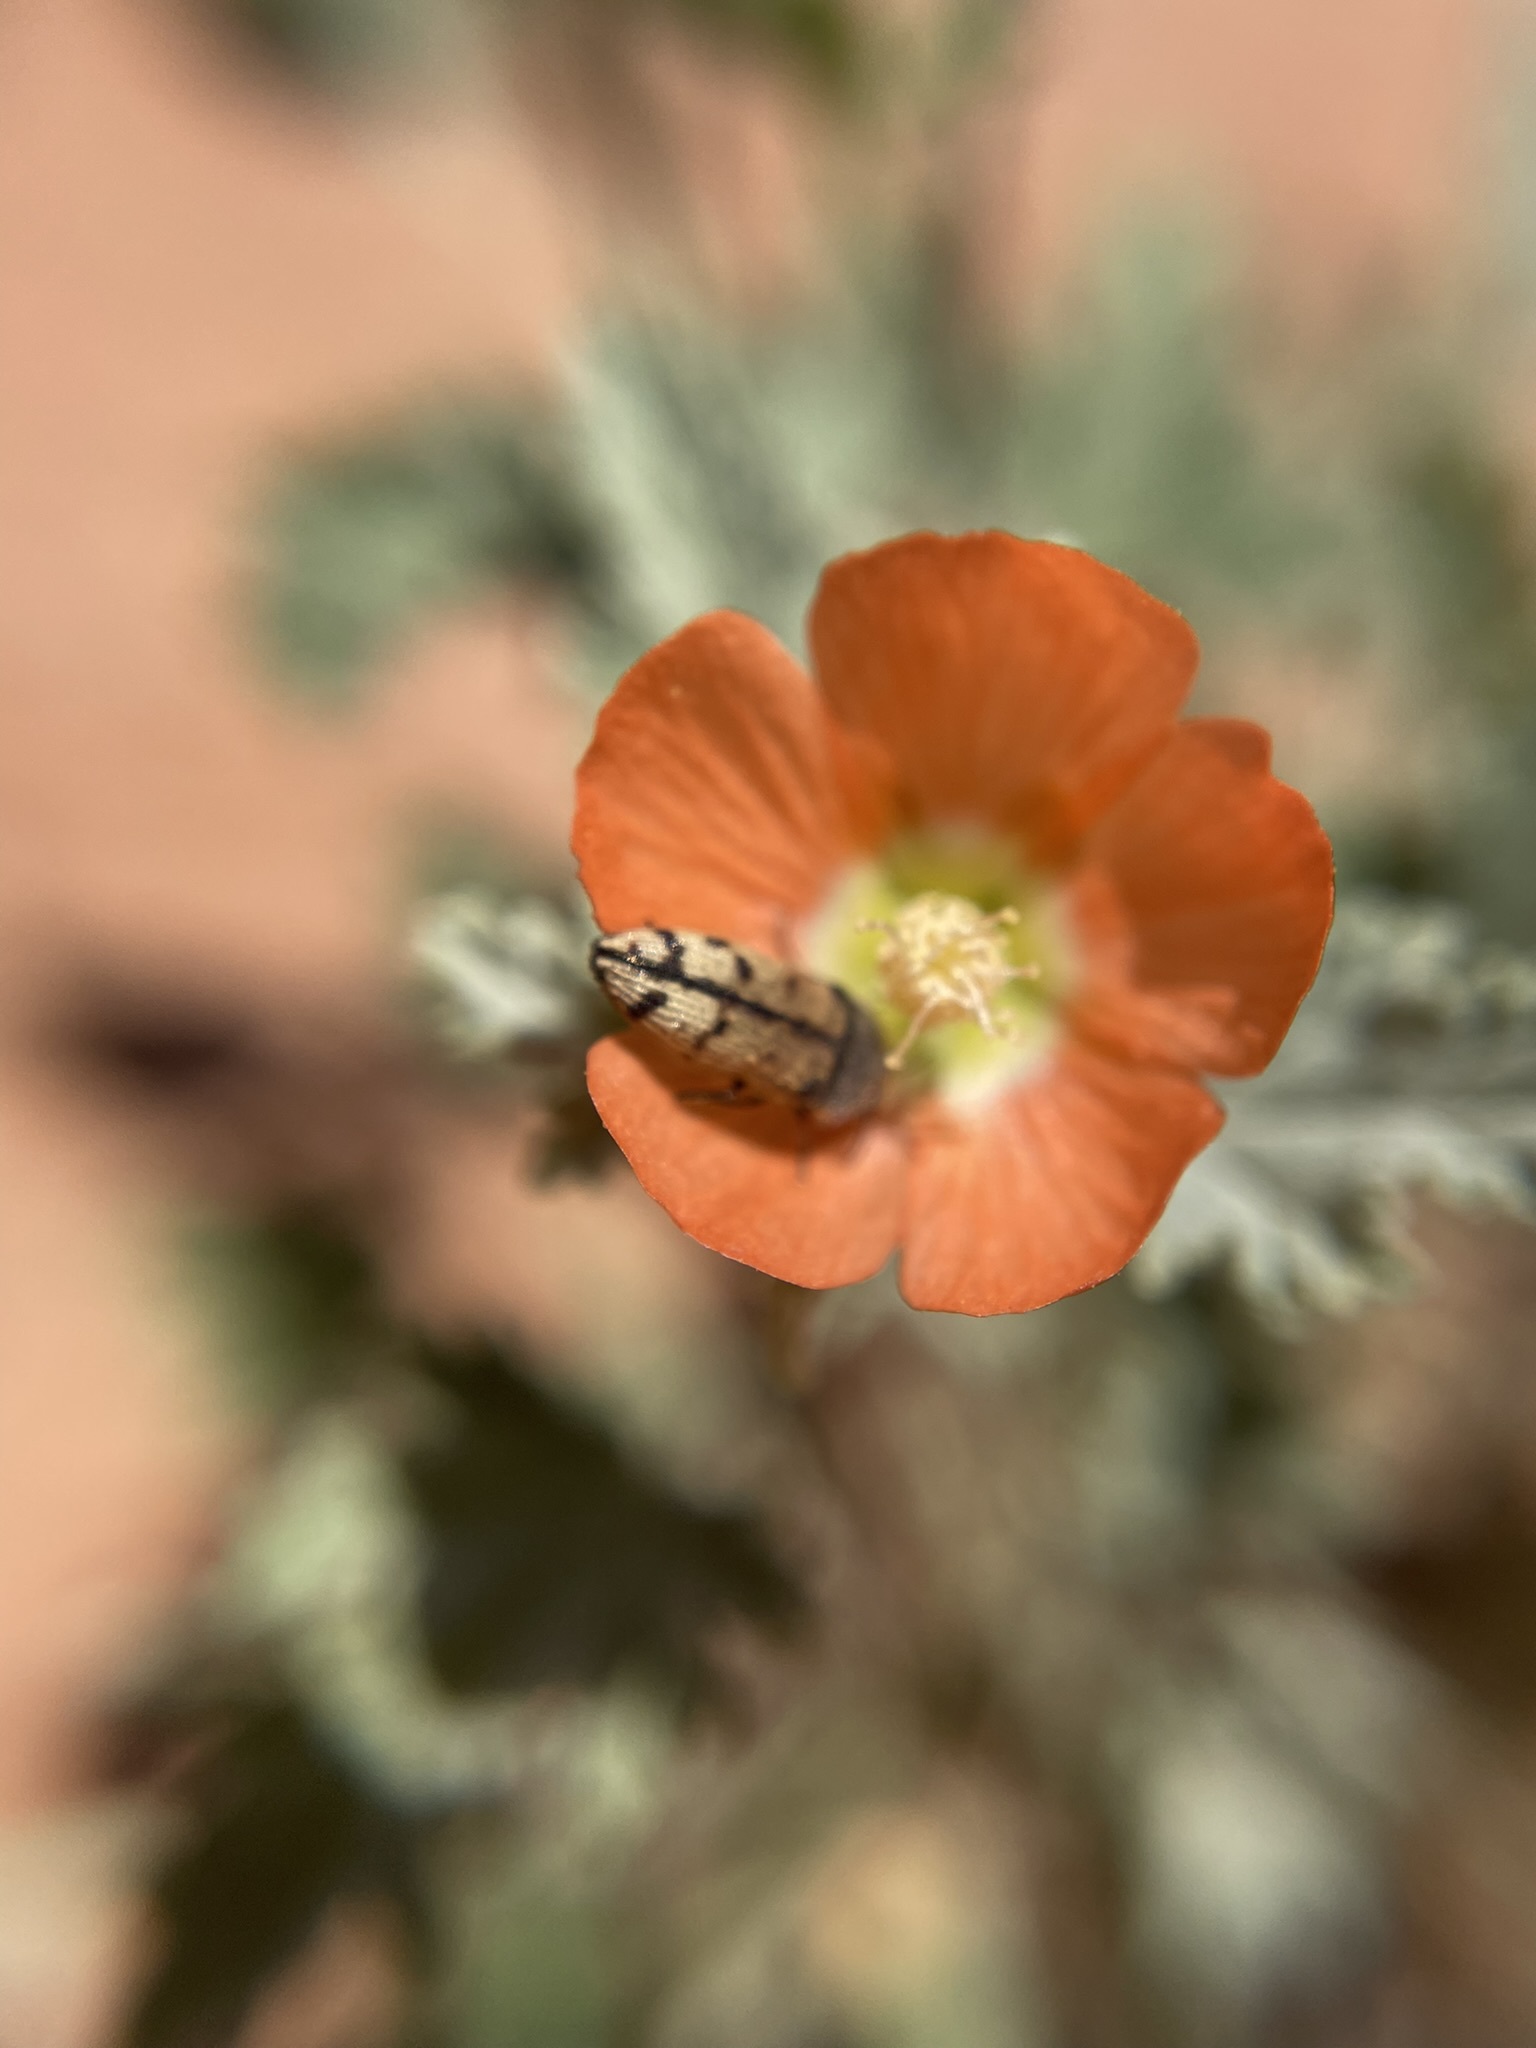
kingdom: Animalia
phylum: Arthropoda
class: Insecta
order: Coleoptera
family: Buprestidae
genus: Acmaeodera
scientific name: Acmaeodera immaculata
